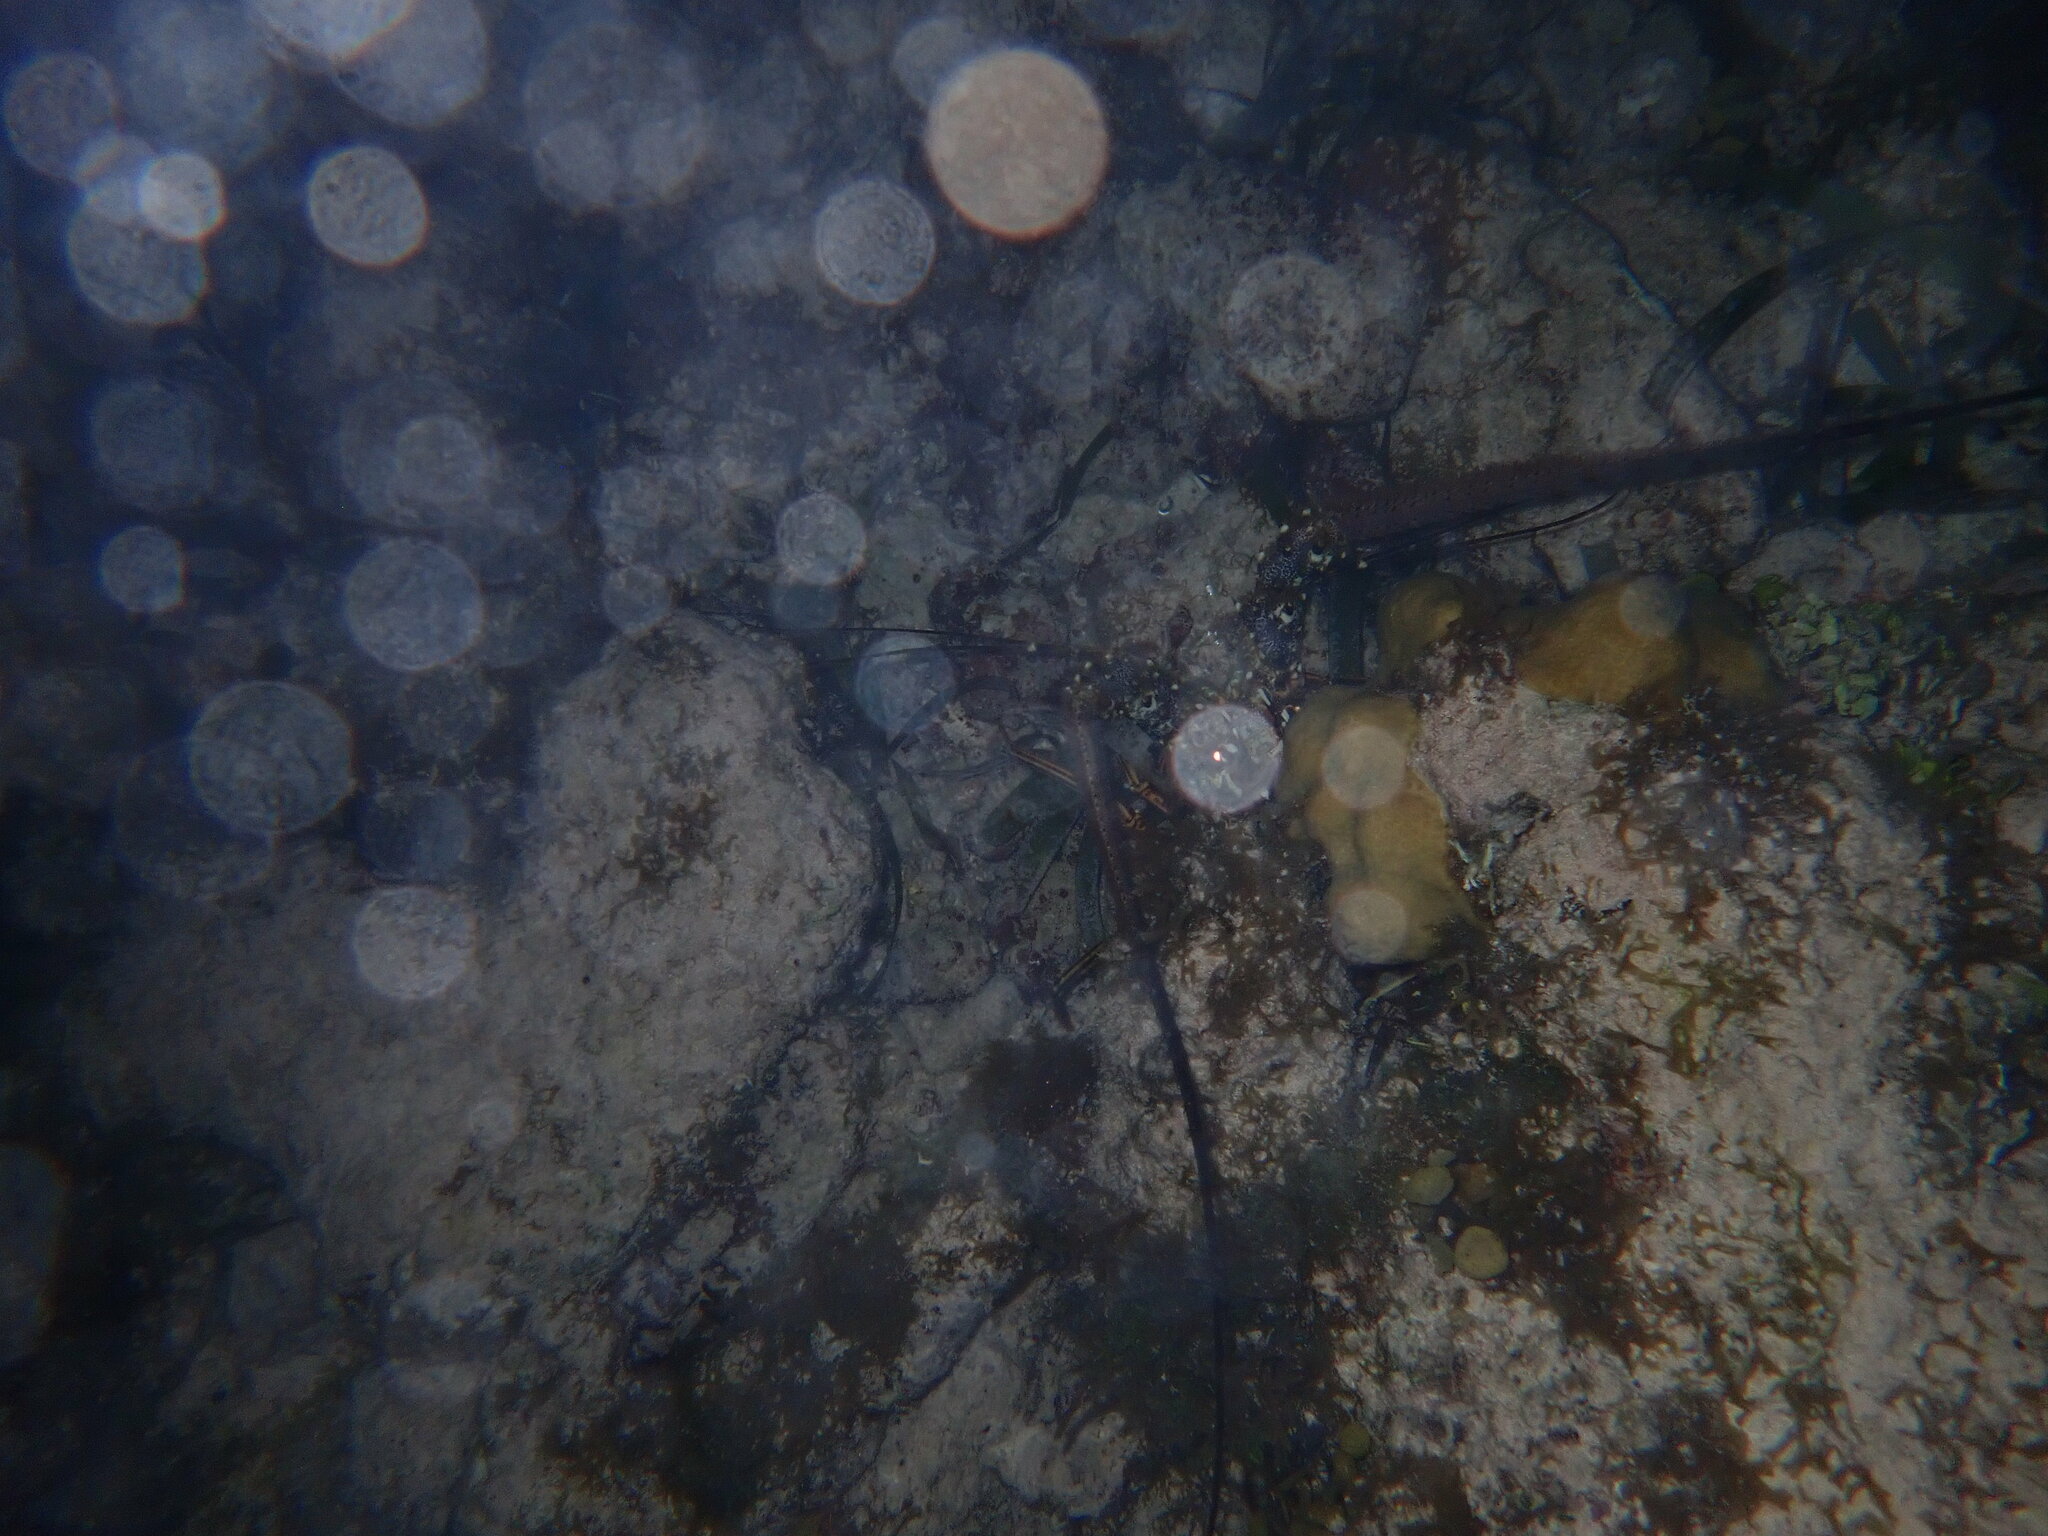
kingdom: Animalia
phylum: Arthropoda
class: Malacostraca
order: Decapoda
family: Palinuridae
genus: Panulirus
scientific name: Panulirus argus
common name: Caribbean spiny lobster
